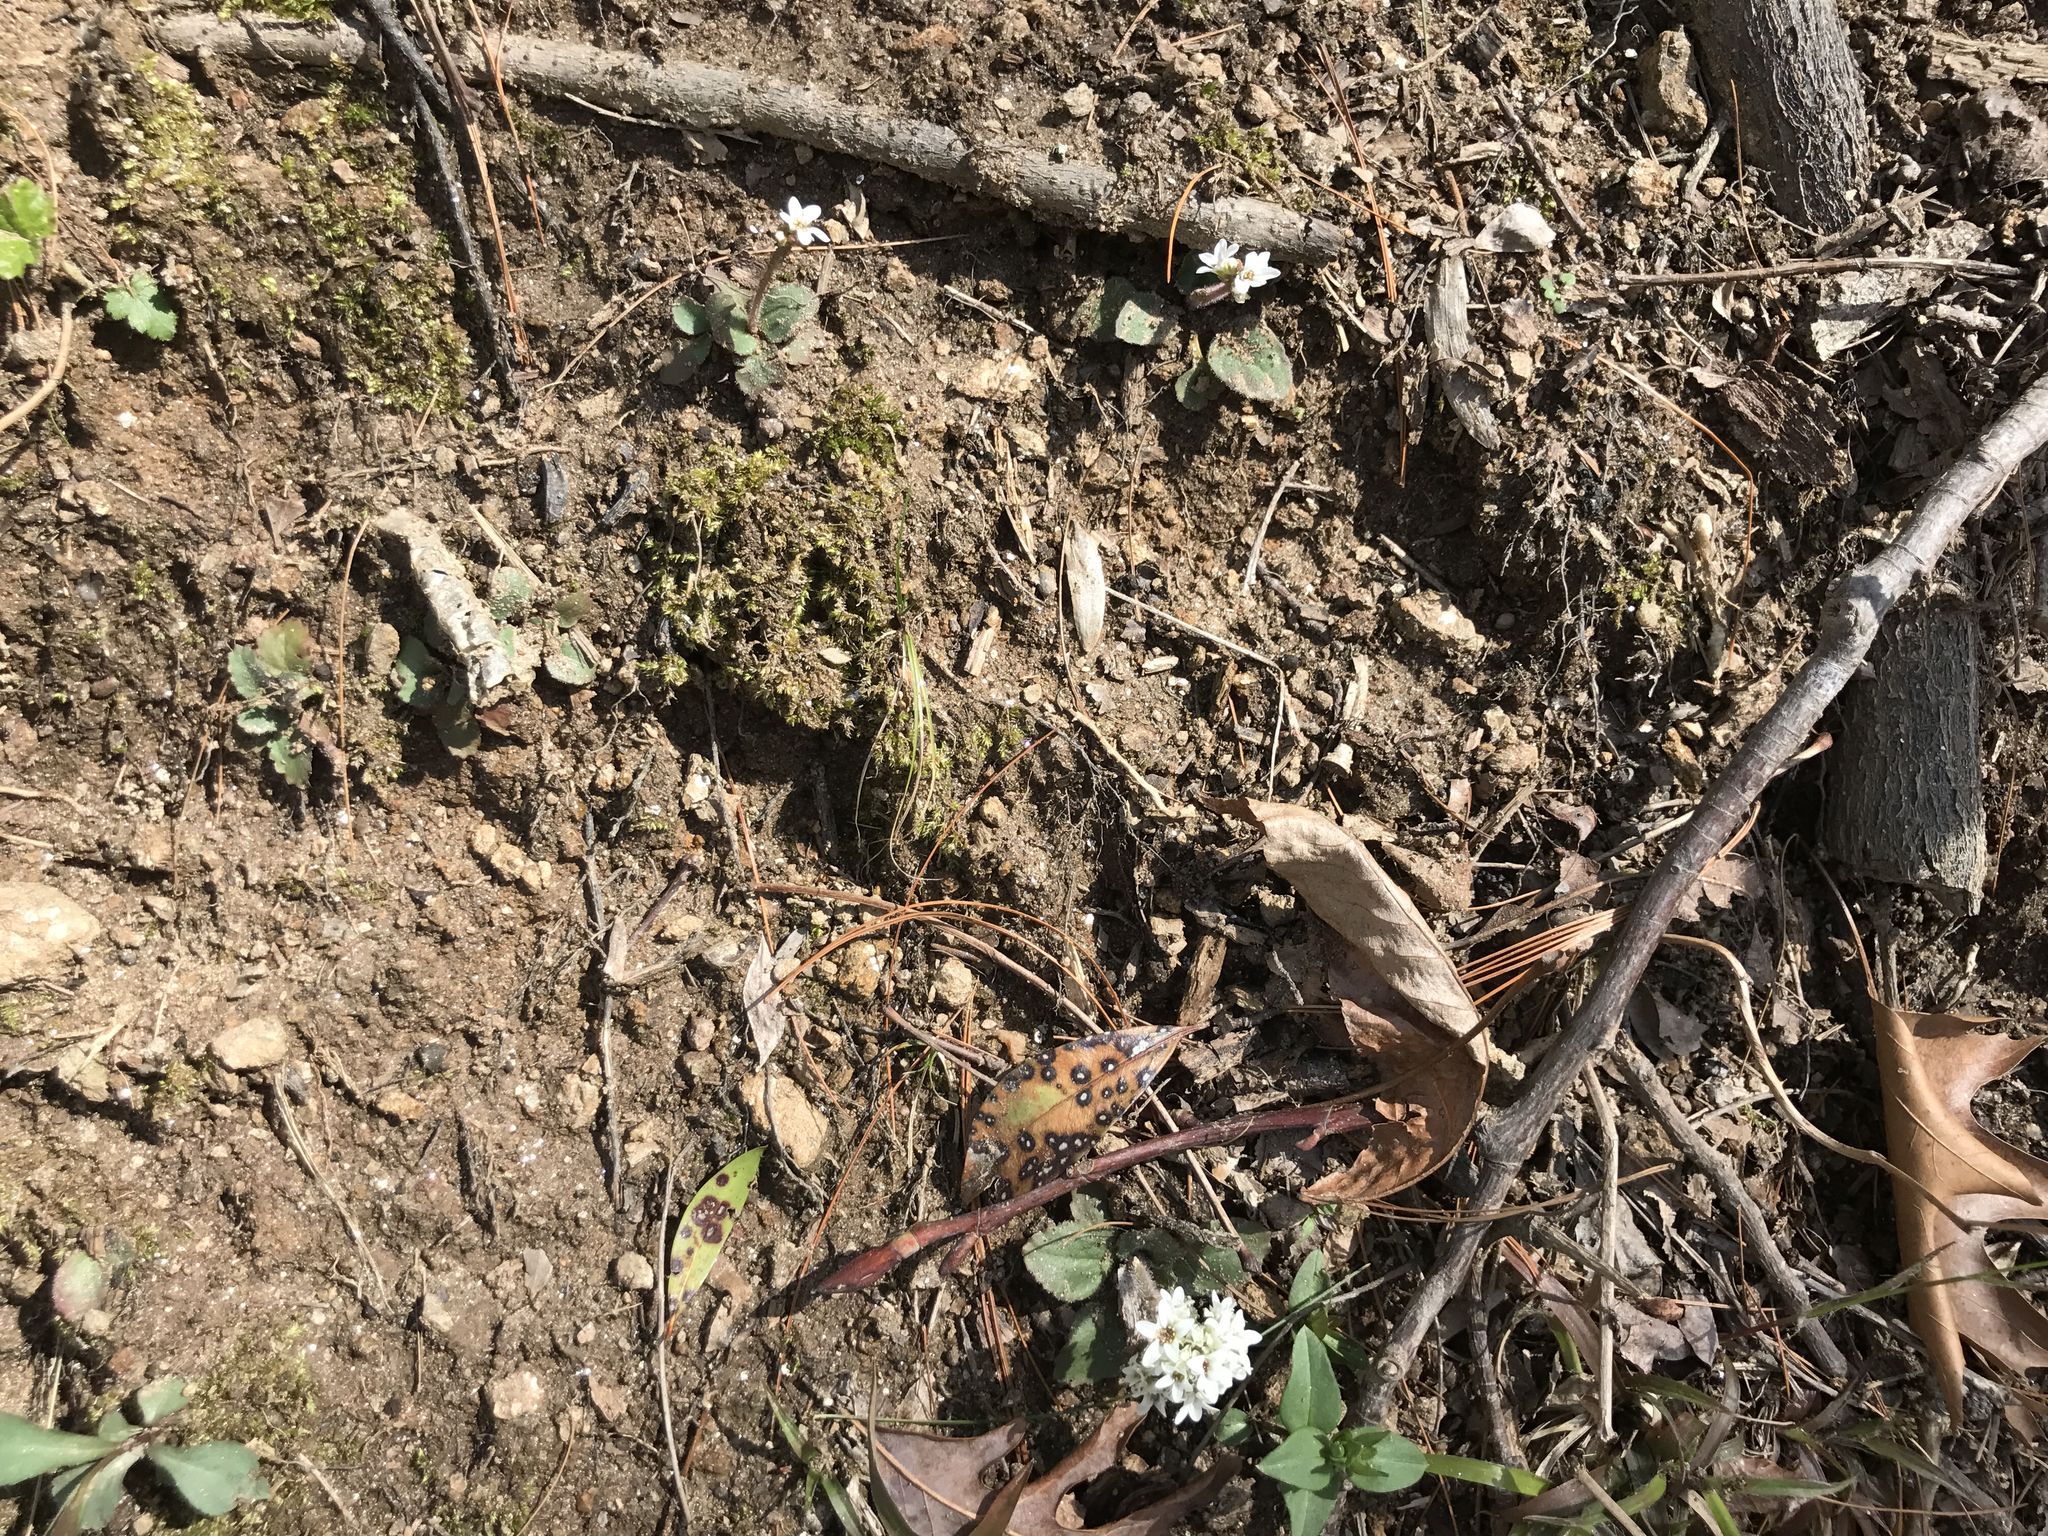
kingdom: Plantae
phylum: Tracheophyta
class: Magnoliopsida
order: Saxifragales
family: Saxifragaceae
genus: Micranthes
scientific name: Micranthes virginiensis
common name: Early saxifrage
